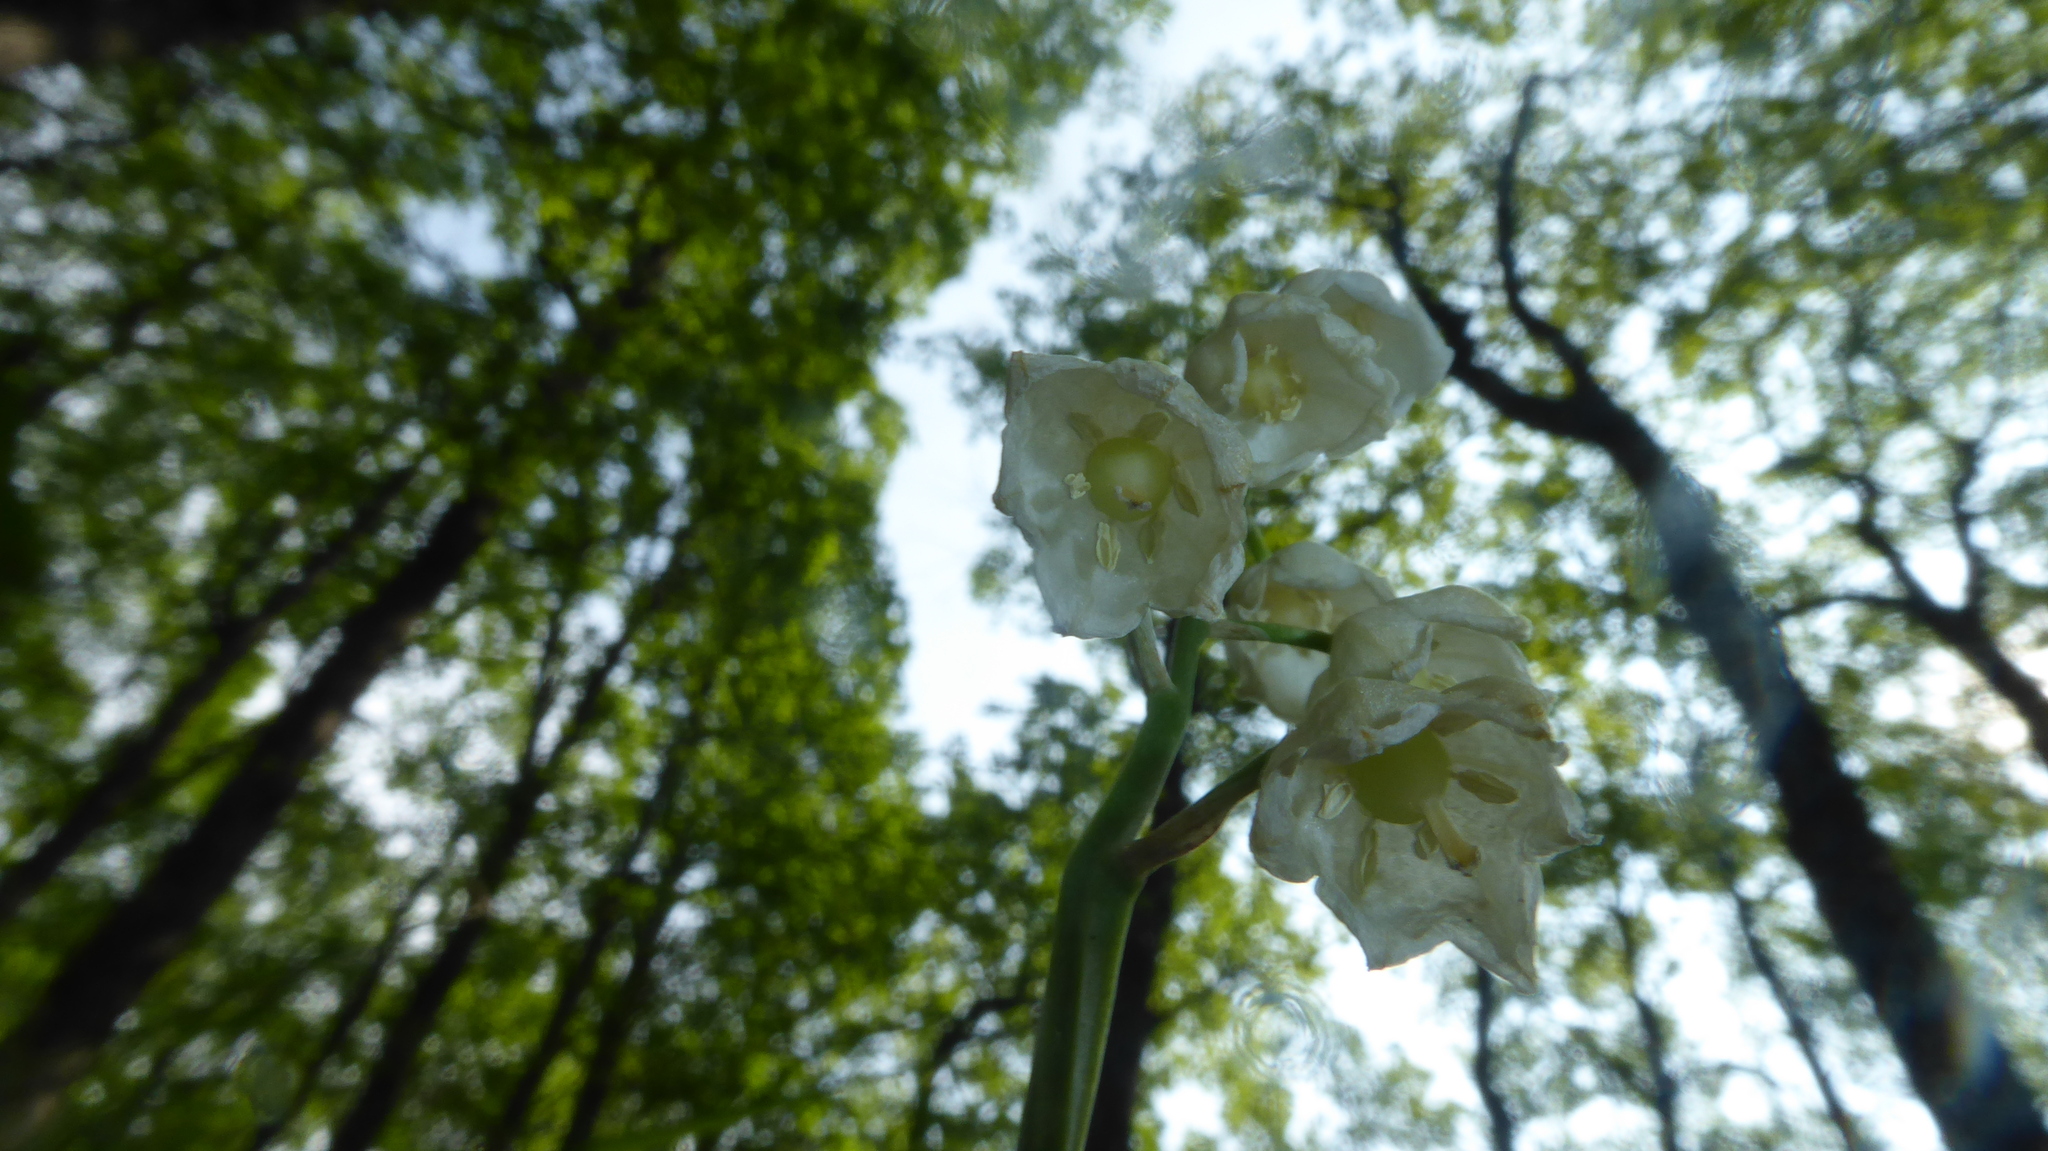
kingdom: Plantae
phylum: Tracheophyta
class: Liliopsida
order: Asparagales
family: Asparagaceae
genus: Convallaria
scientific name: Convallaria majalis
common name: Lily-of-the-valley
